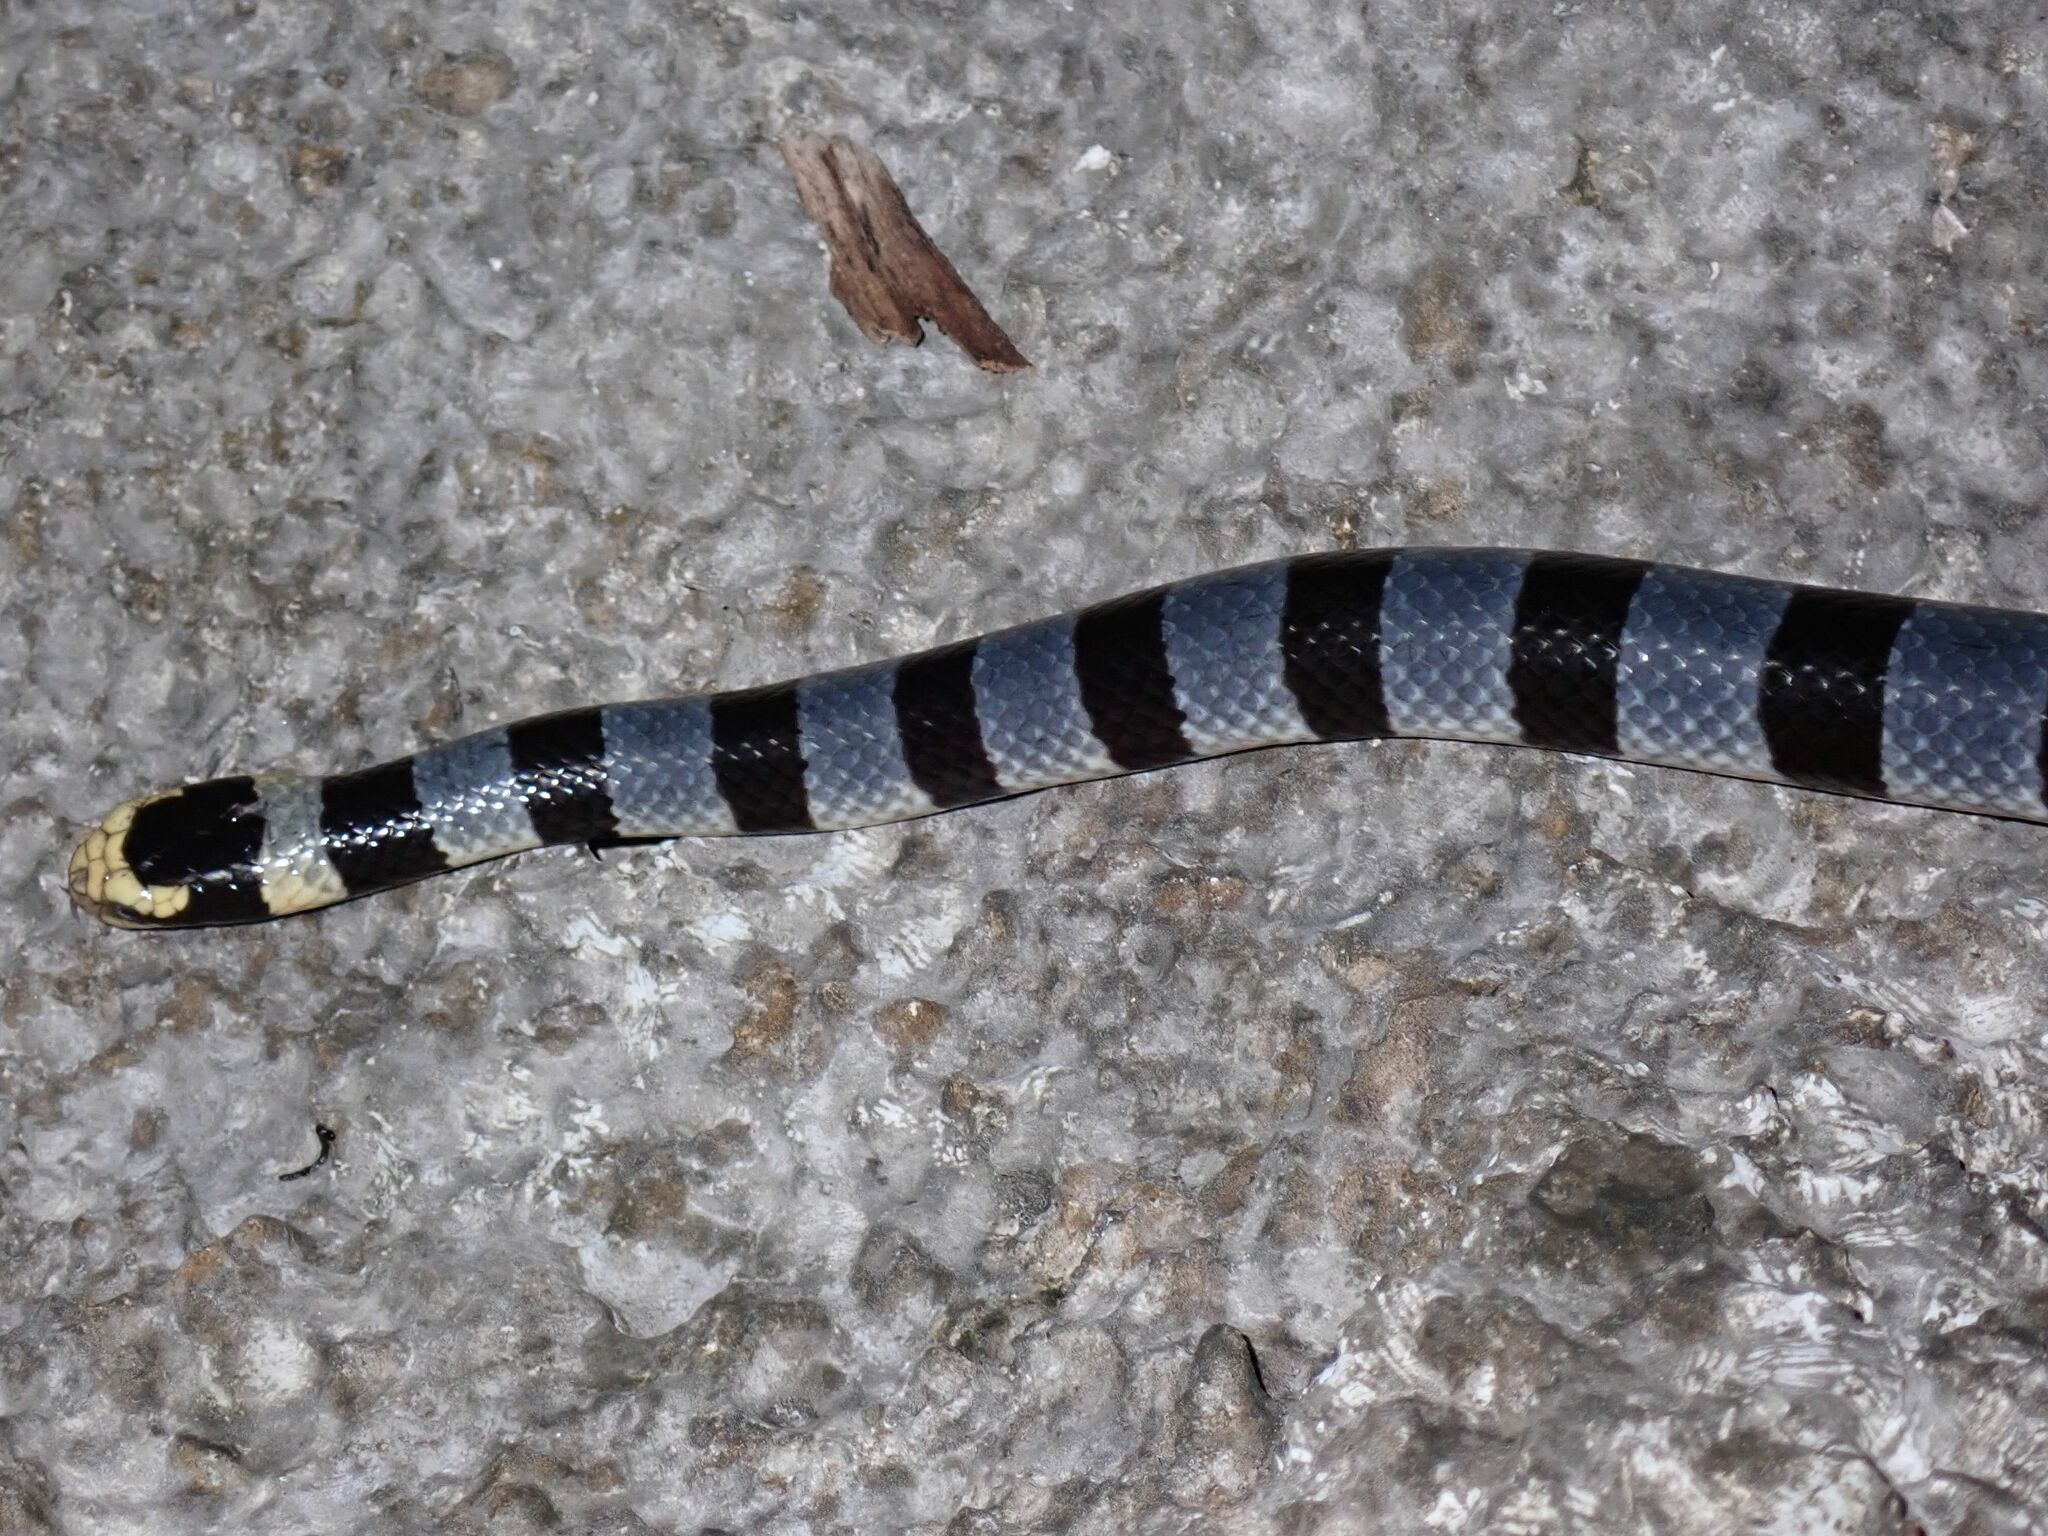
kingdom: Animalia
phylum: Chordata
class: Squamata
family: Elapidae
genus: Laticauda
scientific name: Laticauda colubrina
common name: Yellow-lipped sea krait
